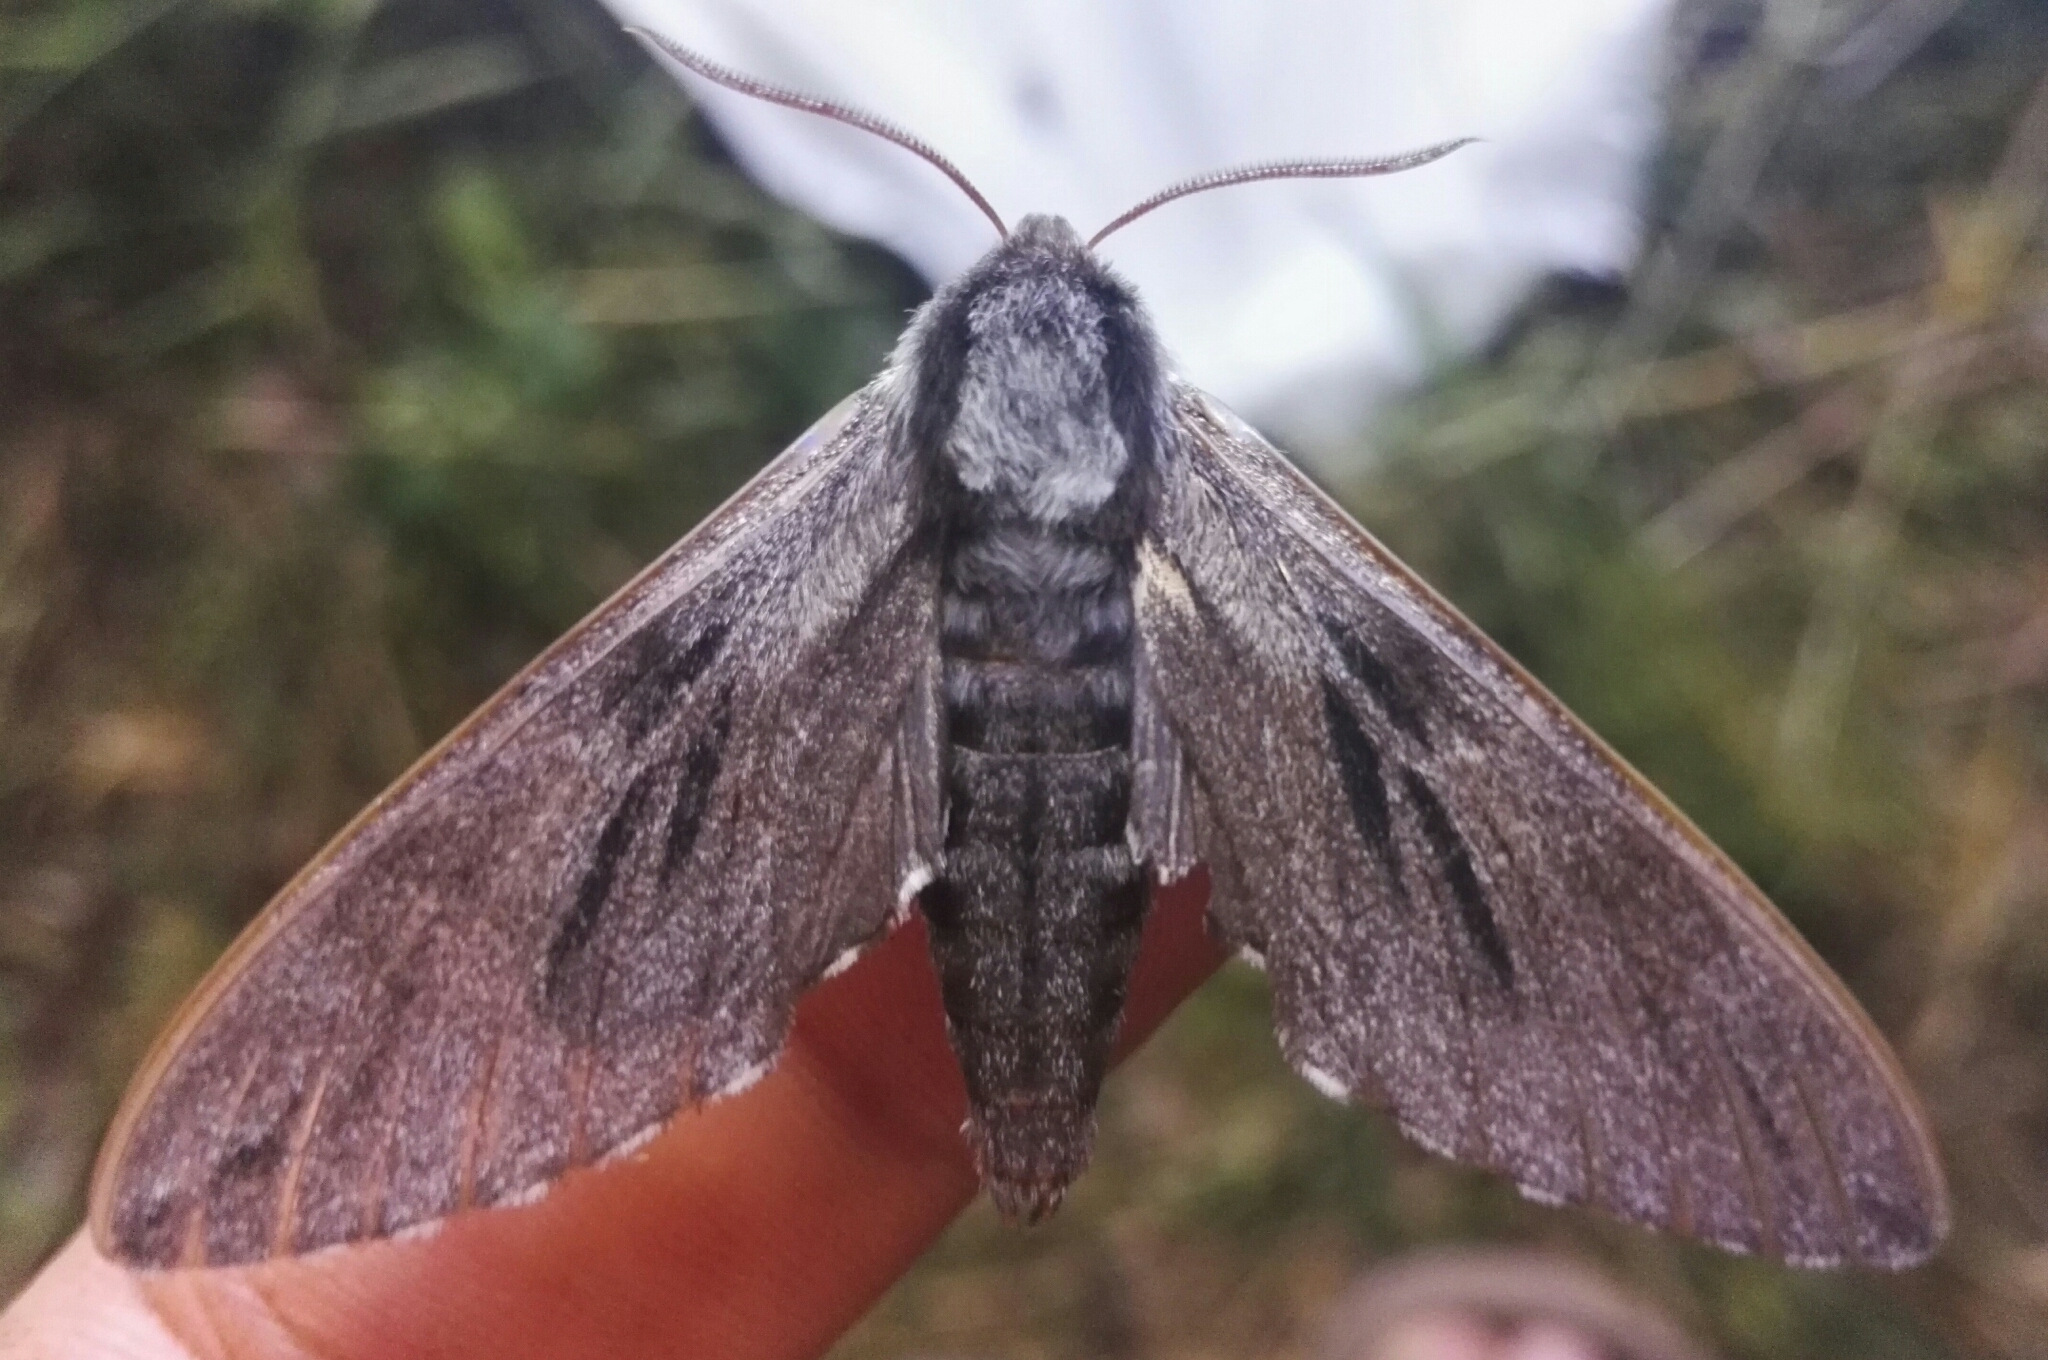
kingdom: Animalia
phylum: Arthropoda
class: Insecta
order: Lepidoptera
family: Sphingidae
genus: Sphinx
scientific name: Sphinx pinastri
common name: Pine hawk-moth
